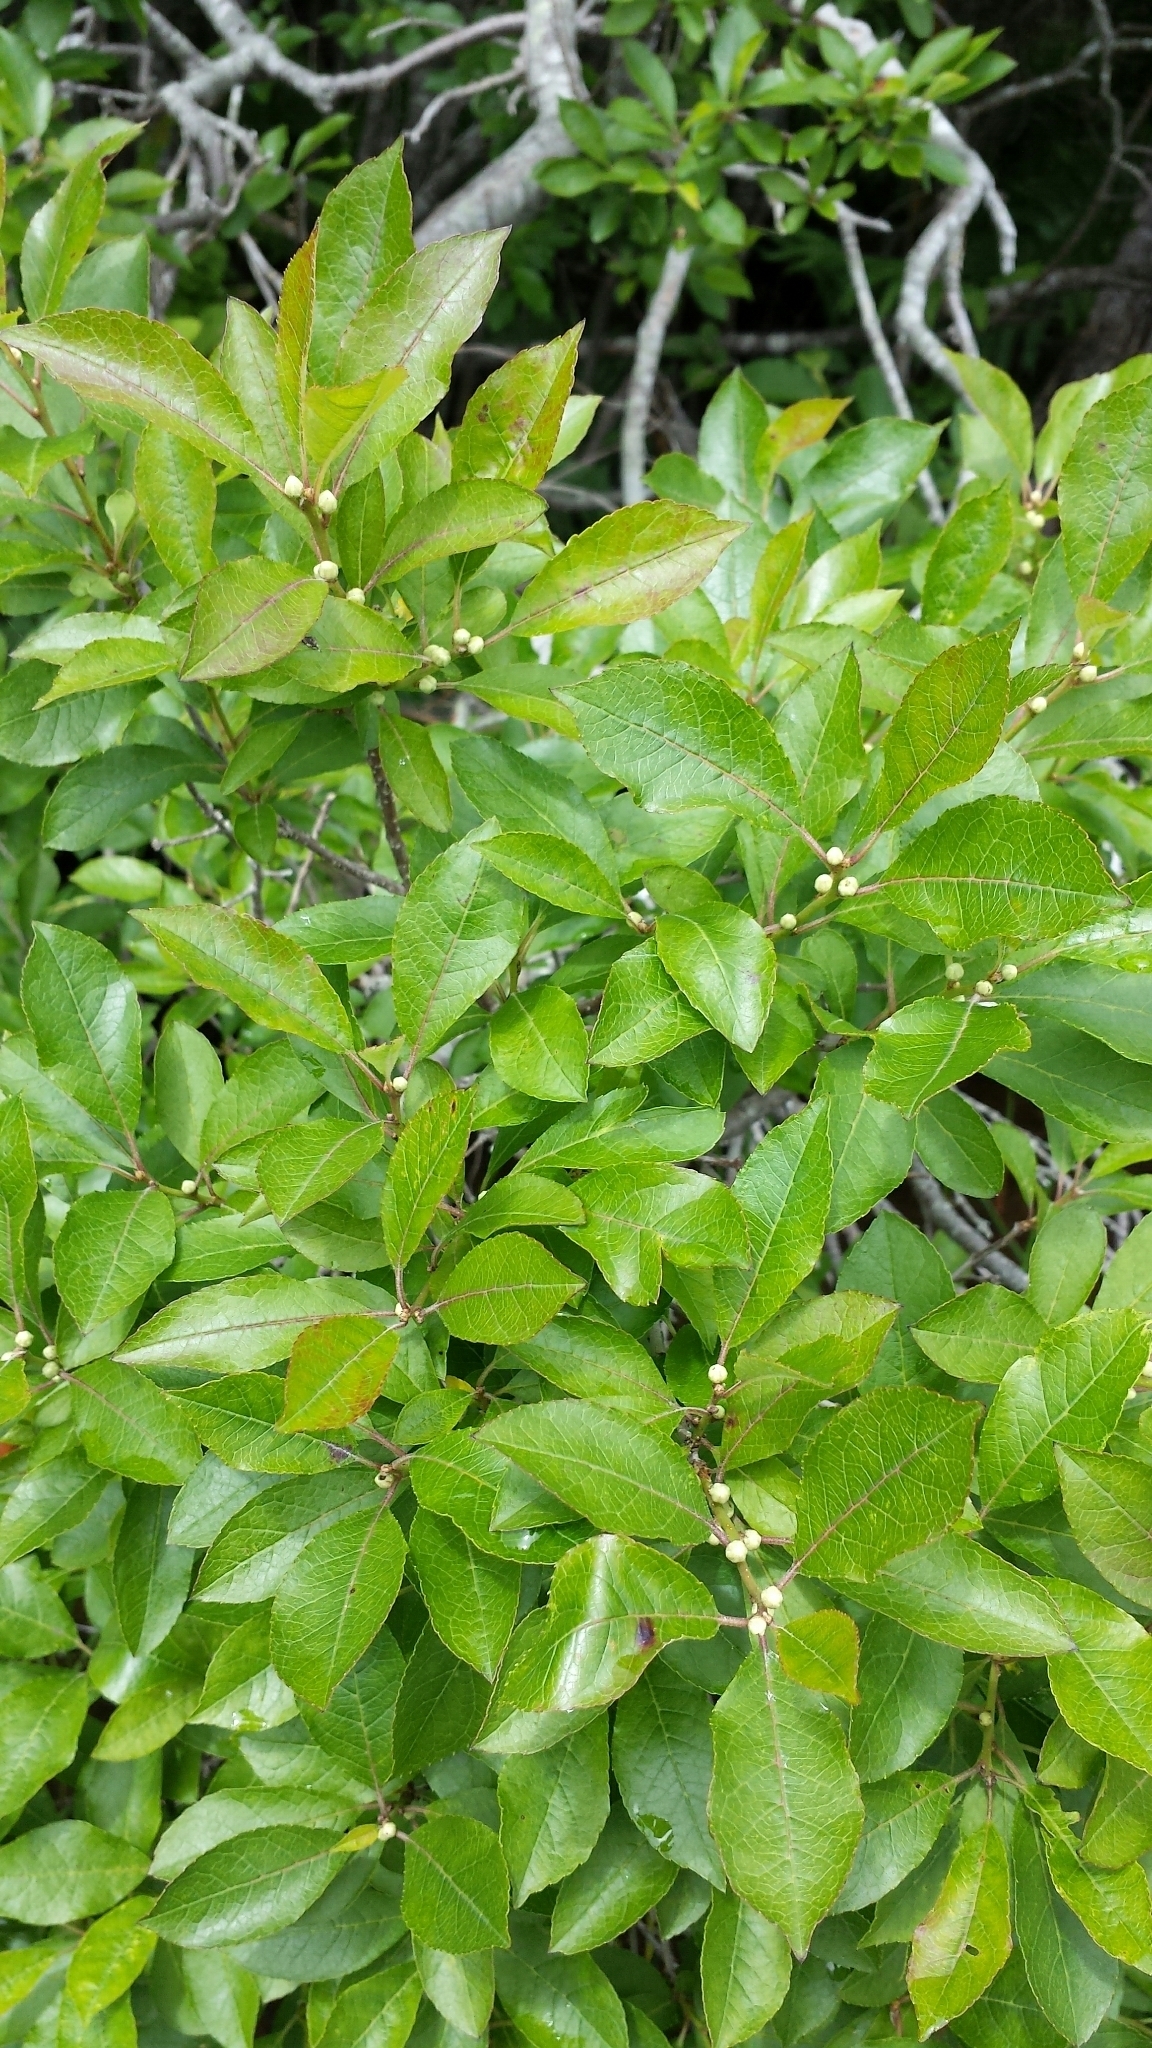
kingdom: Plantae
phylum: Tracheophyta
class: Magnoliopsida
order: Aquifoliales
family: Aquifoliaceae
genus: Ilex
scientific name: Ilex verticillata
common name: Virginia winterberry
